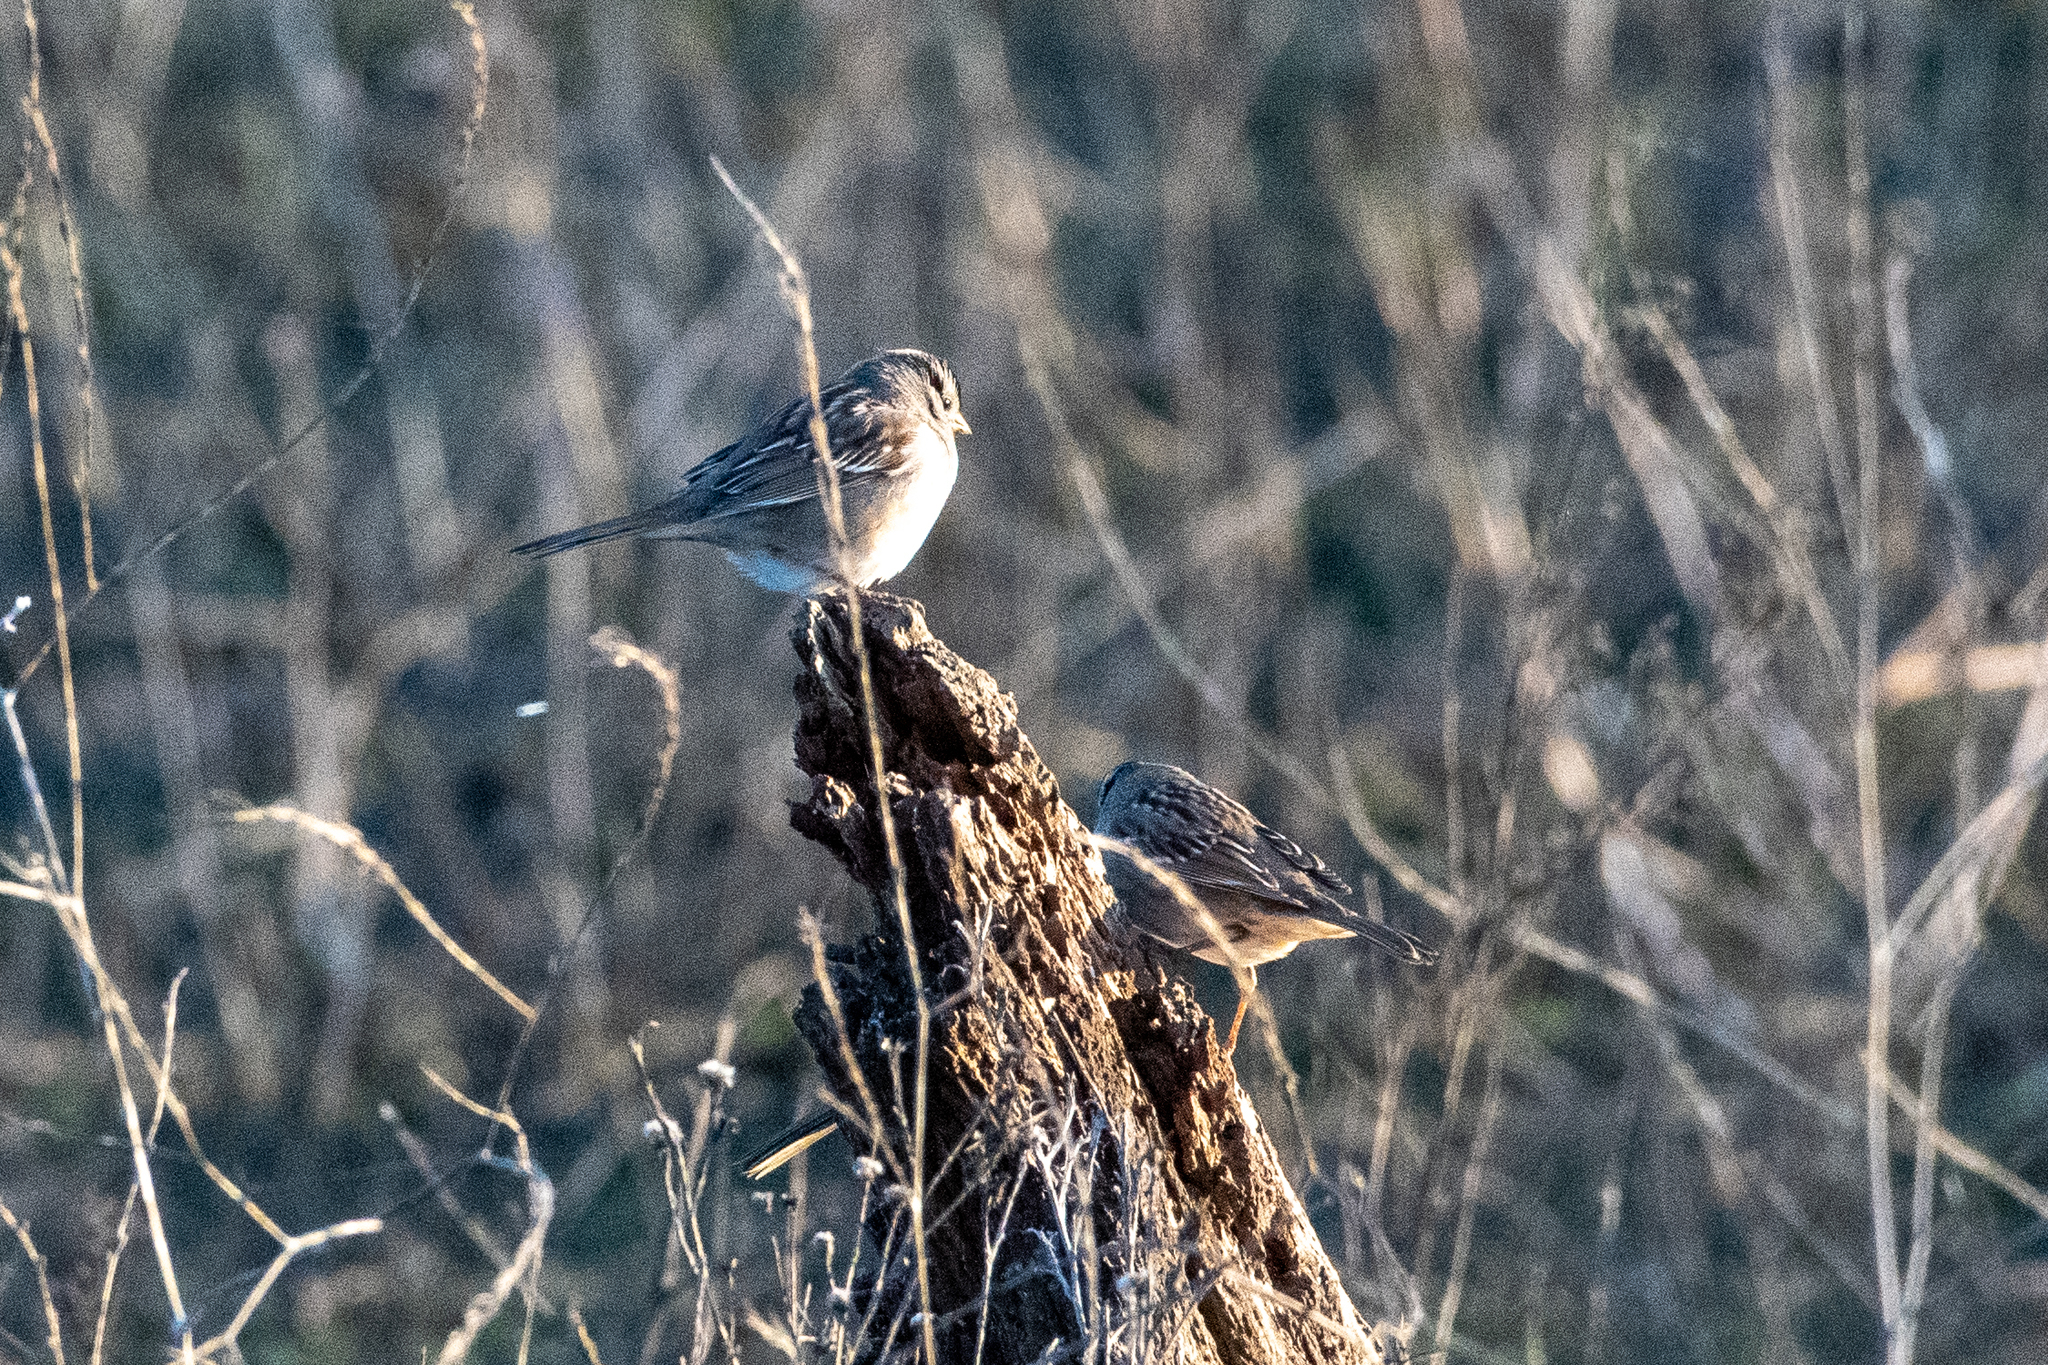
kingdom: Animalia
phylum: Chordata
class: Aves
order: Passeriformes
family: Passerellidae
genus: Zonotrichia
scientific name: Zonotrichia leucophrys
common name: White-crowned sparrow
